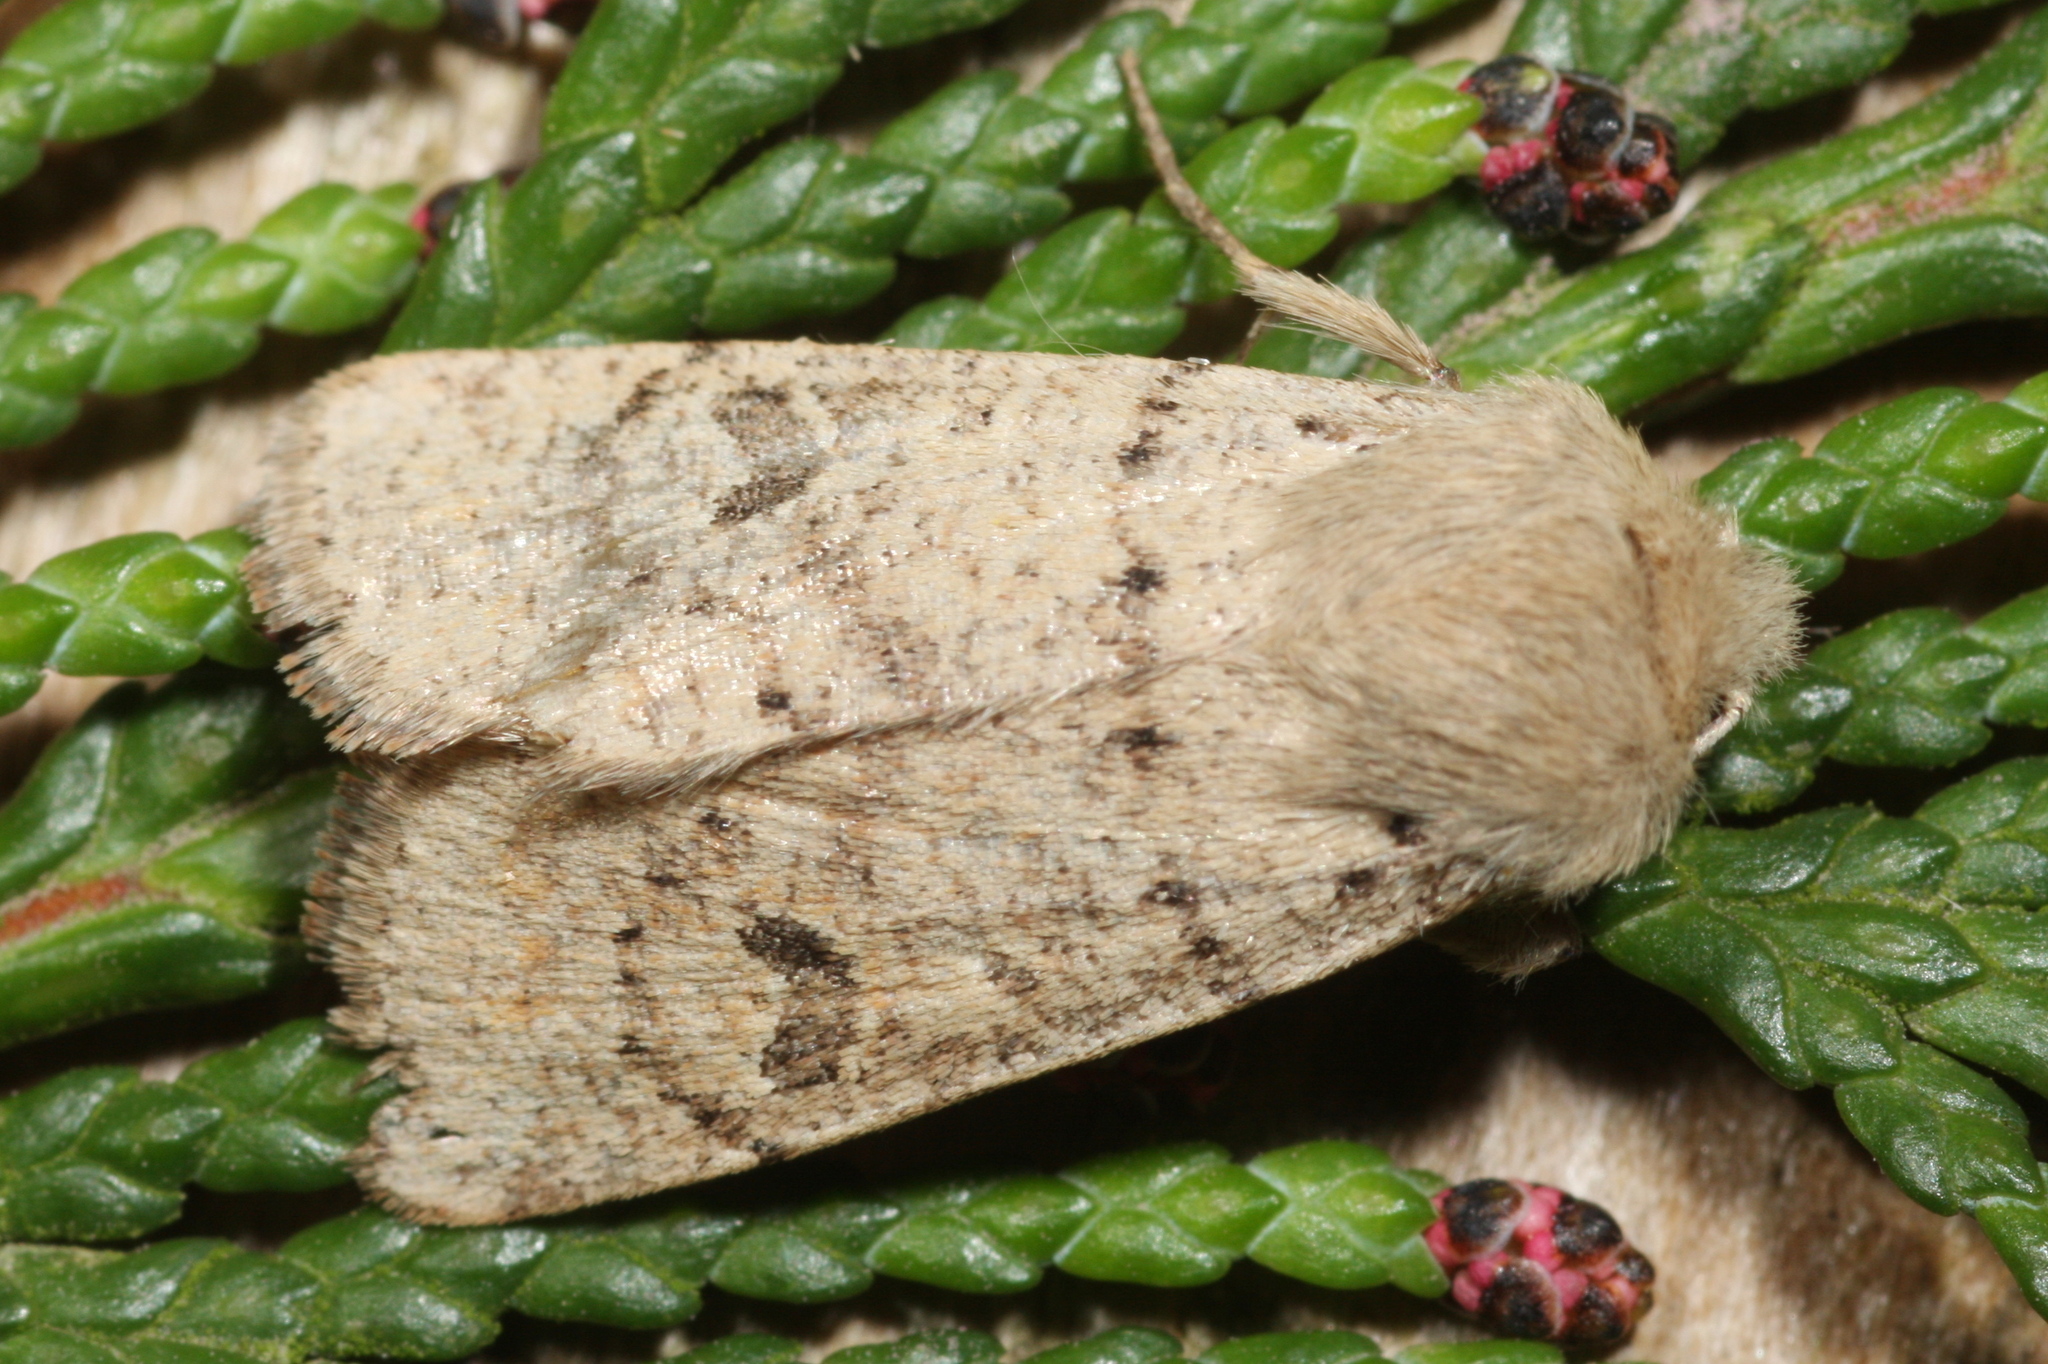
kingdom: Animalia
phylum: Arthropoda
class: Insecta
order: Lepidoptera
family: Noctuidae
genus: Orthosia
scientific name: Orthosia cruda
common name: Small quaker
